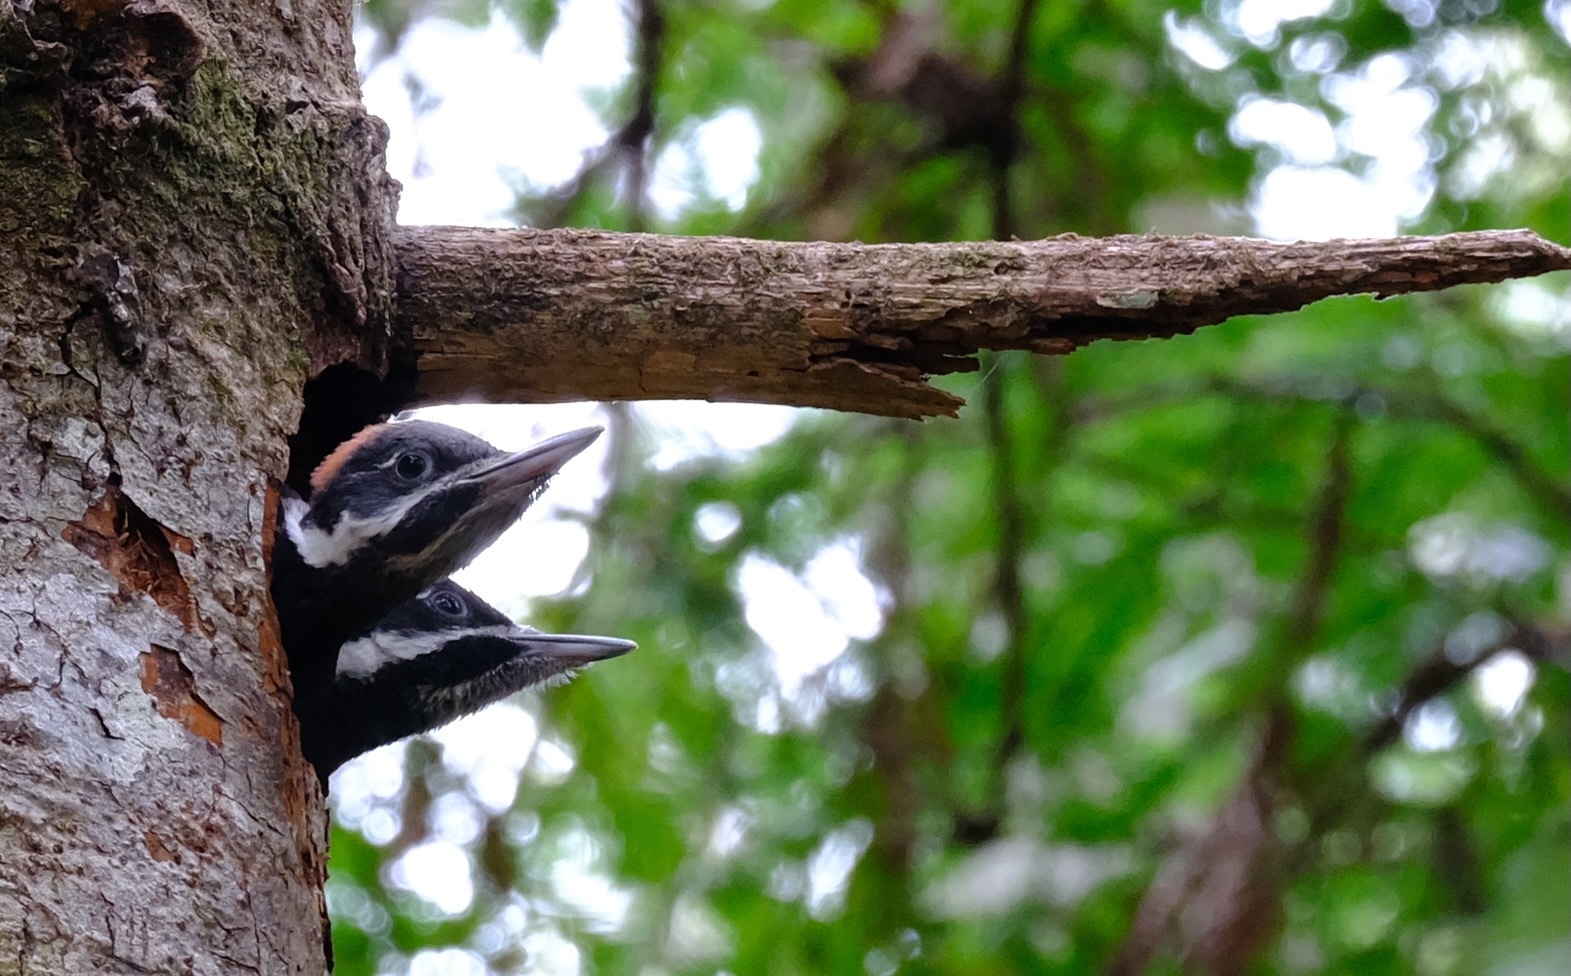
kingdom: Animalia
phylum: Chordata
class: Aves
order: Piciformes
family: Picidae
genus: Dryocopus
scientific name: Dryocopus pileatus
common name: Pileated woodpecker
